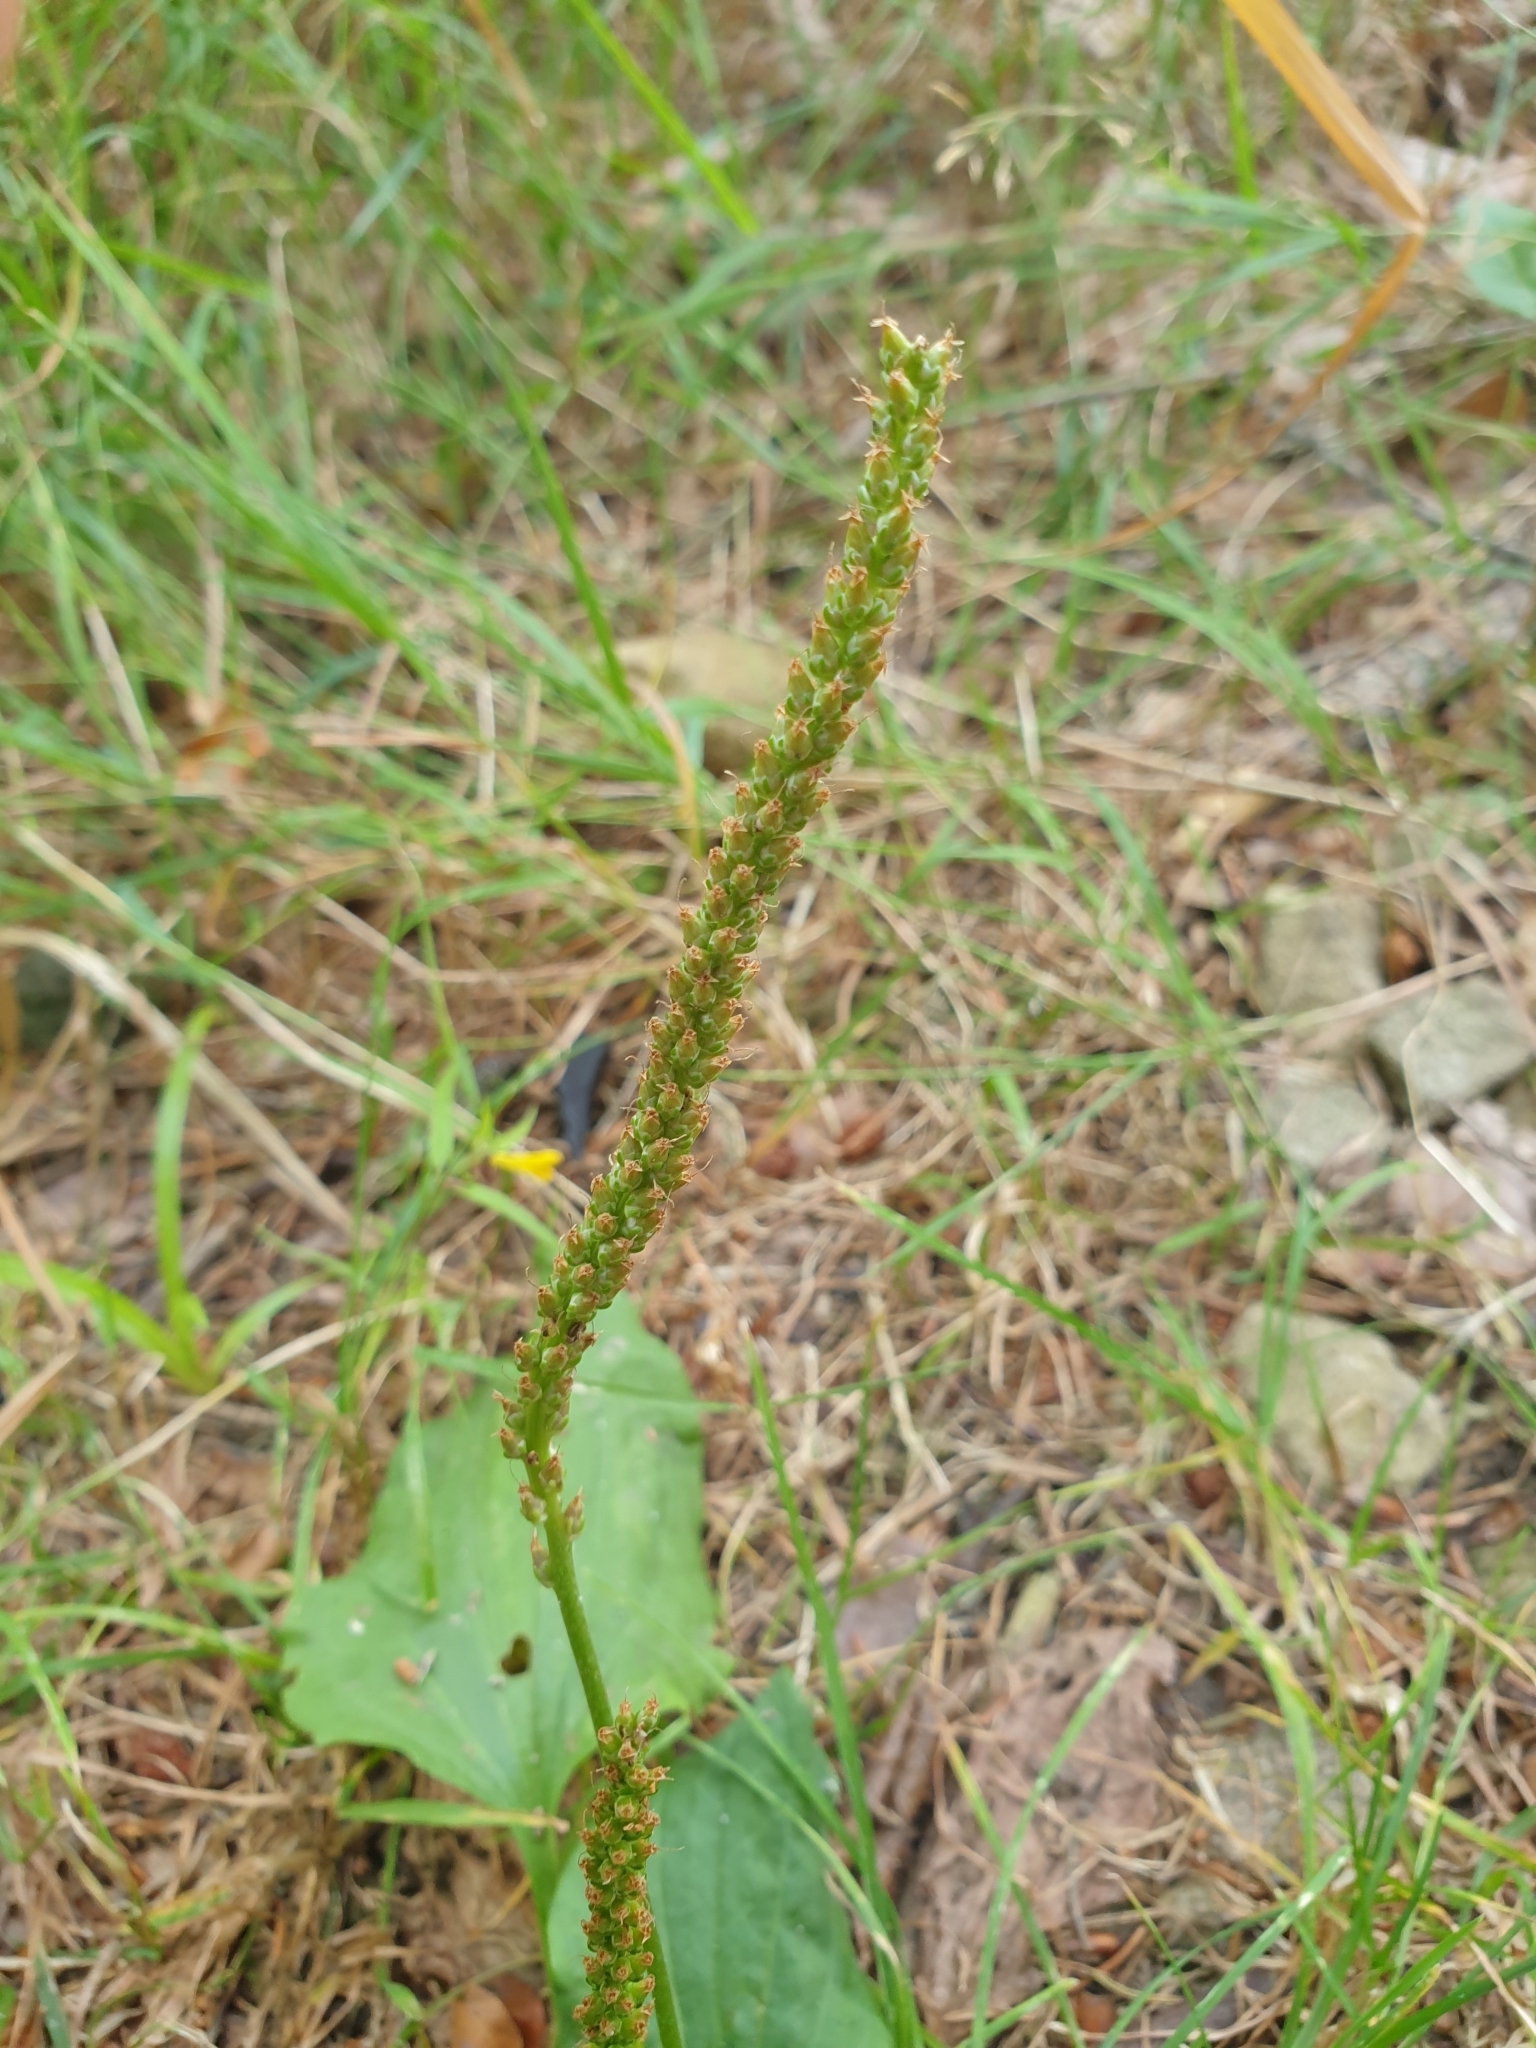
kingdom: Plantae
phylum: Tracheophyta
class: Magnoliopsida
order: Lamiales
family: Plantaginaceae
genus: Plantago
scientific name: Plantago major
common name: Common plantain
